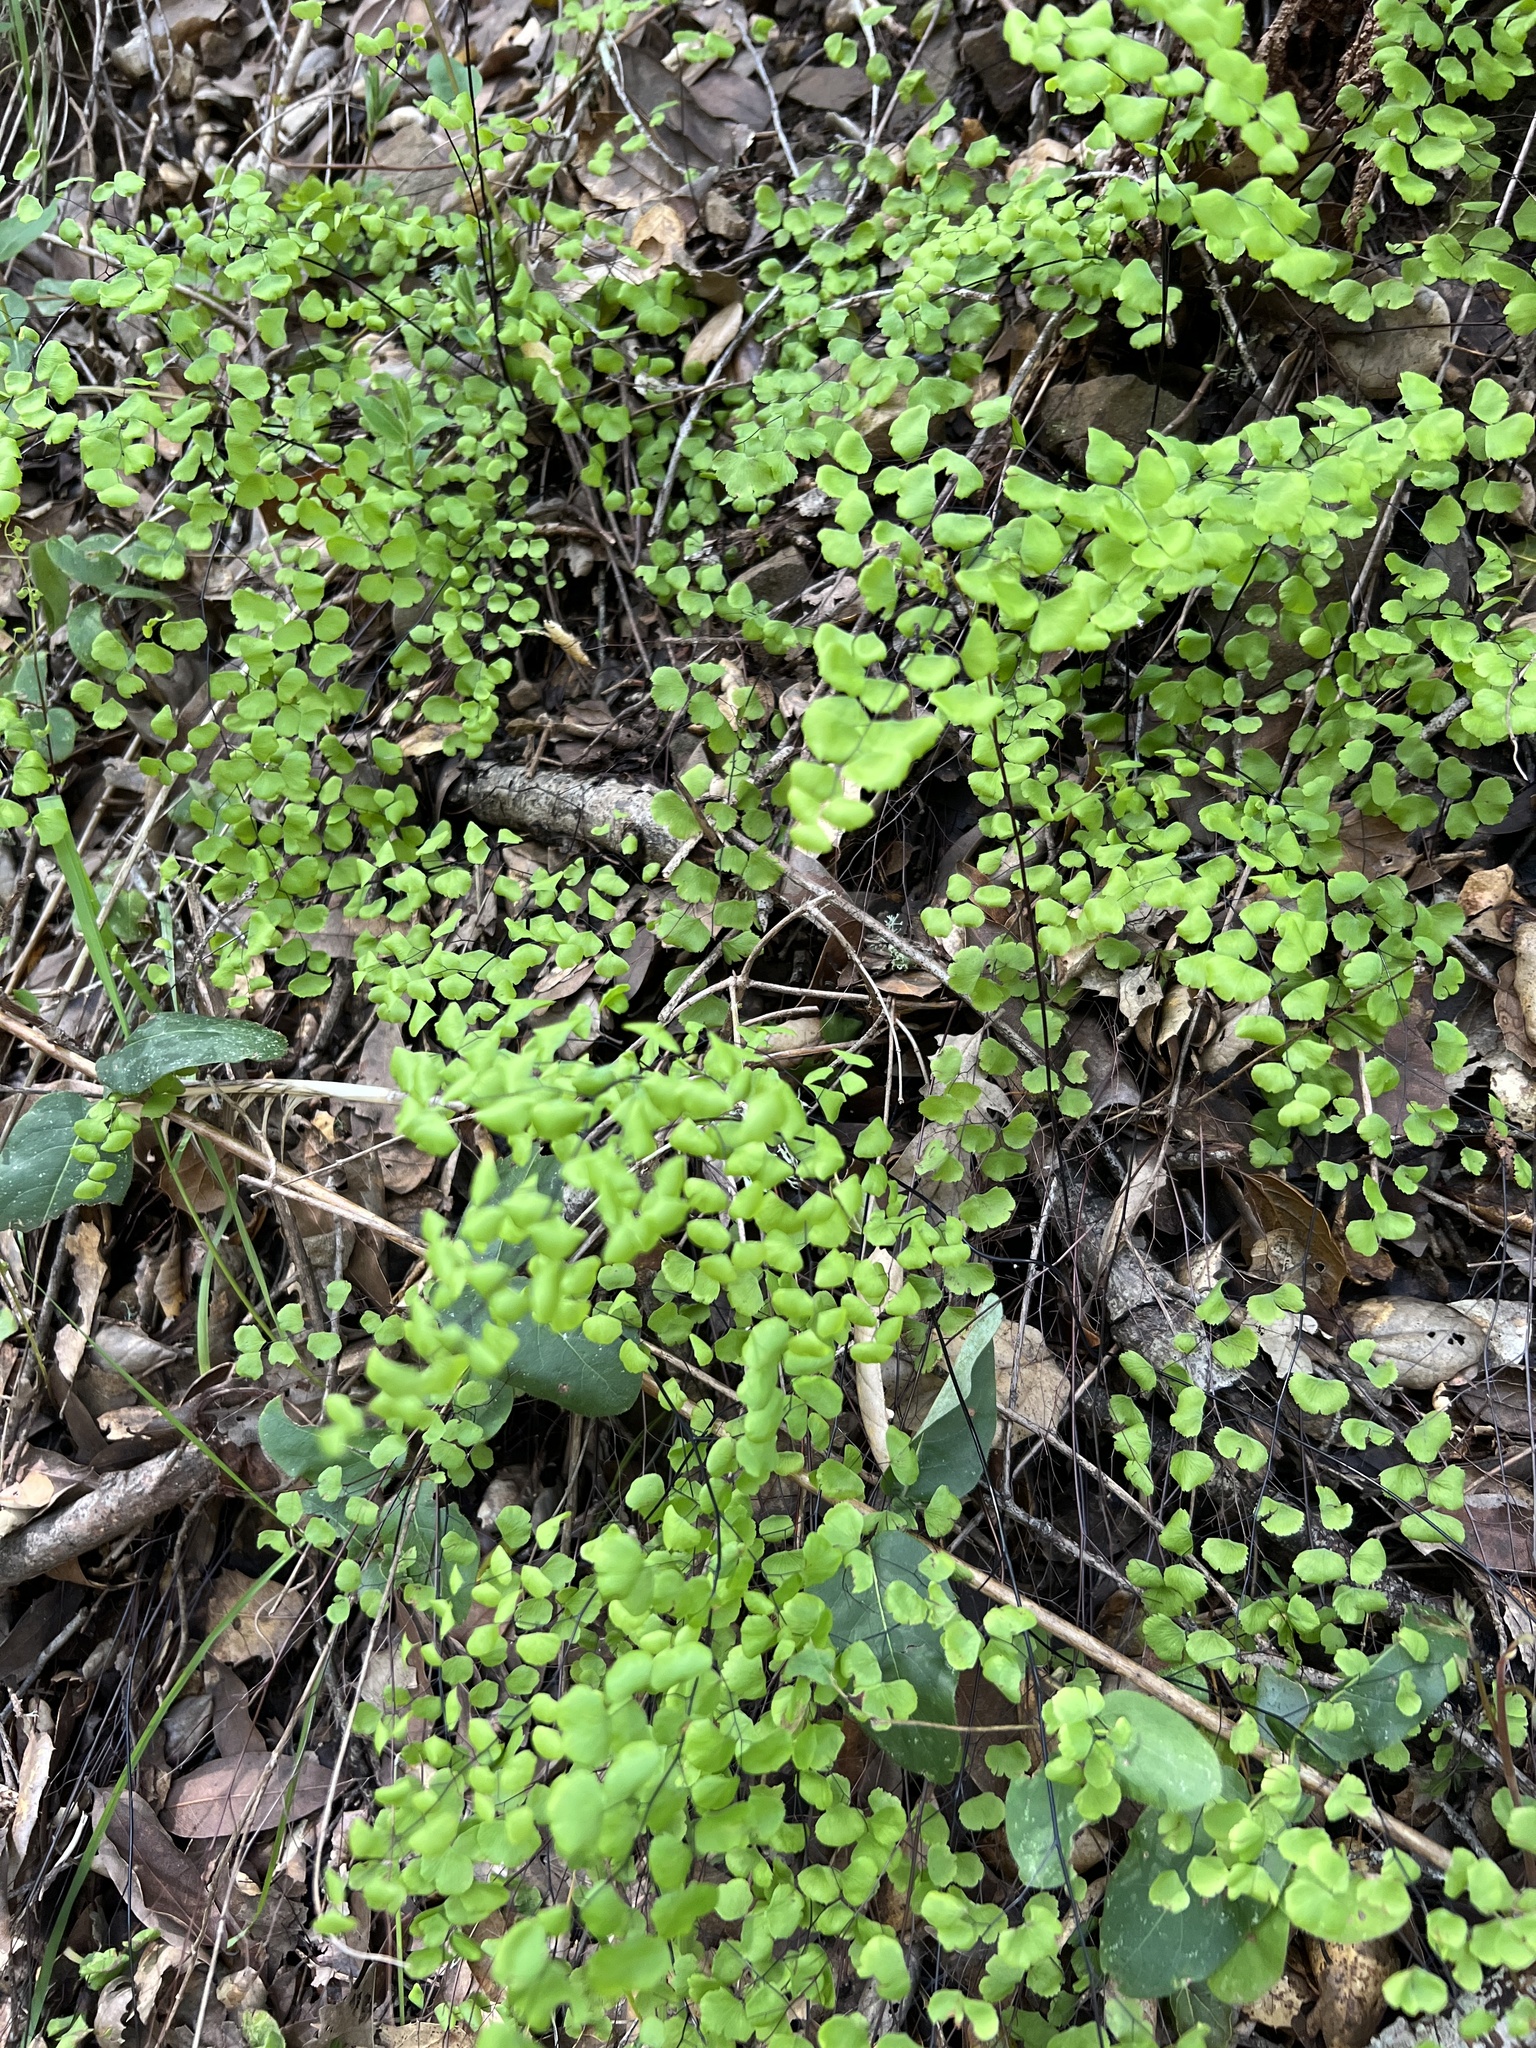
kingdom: Plantae
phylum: Tracheophyta
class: Polypodiopsida
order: Polypodiales
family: Pteridaceae
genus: Adiantum
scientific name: Adiantum jordanii
